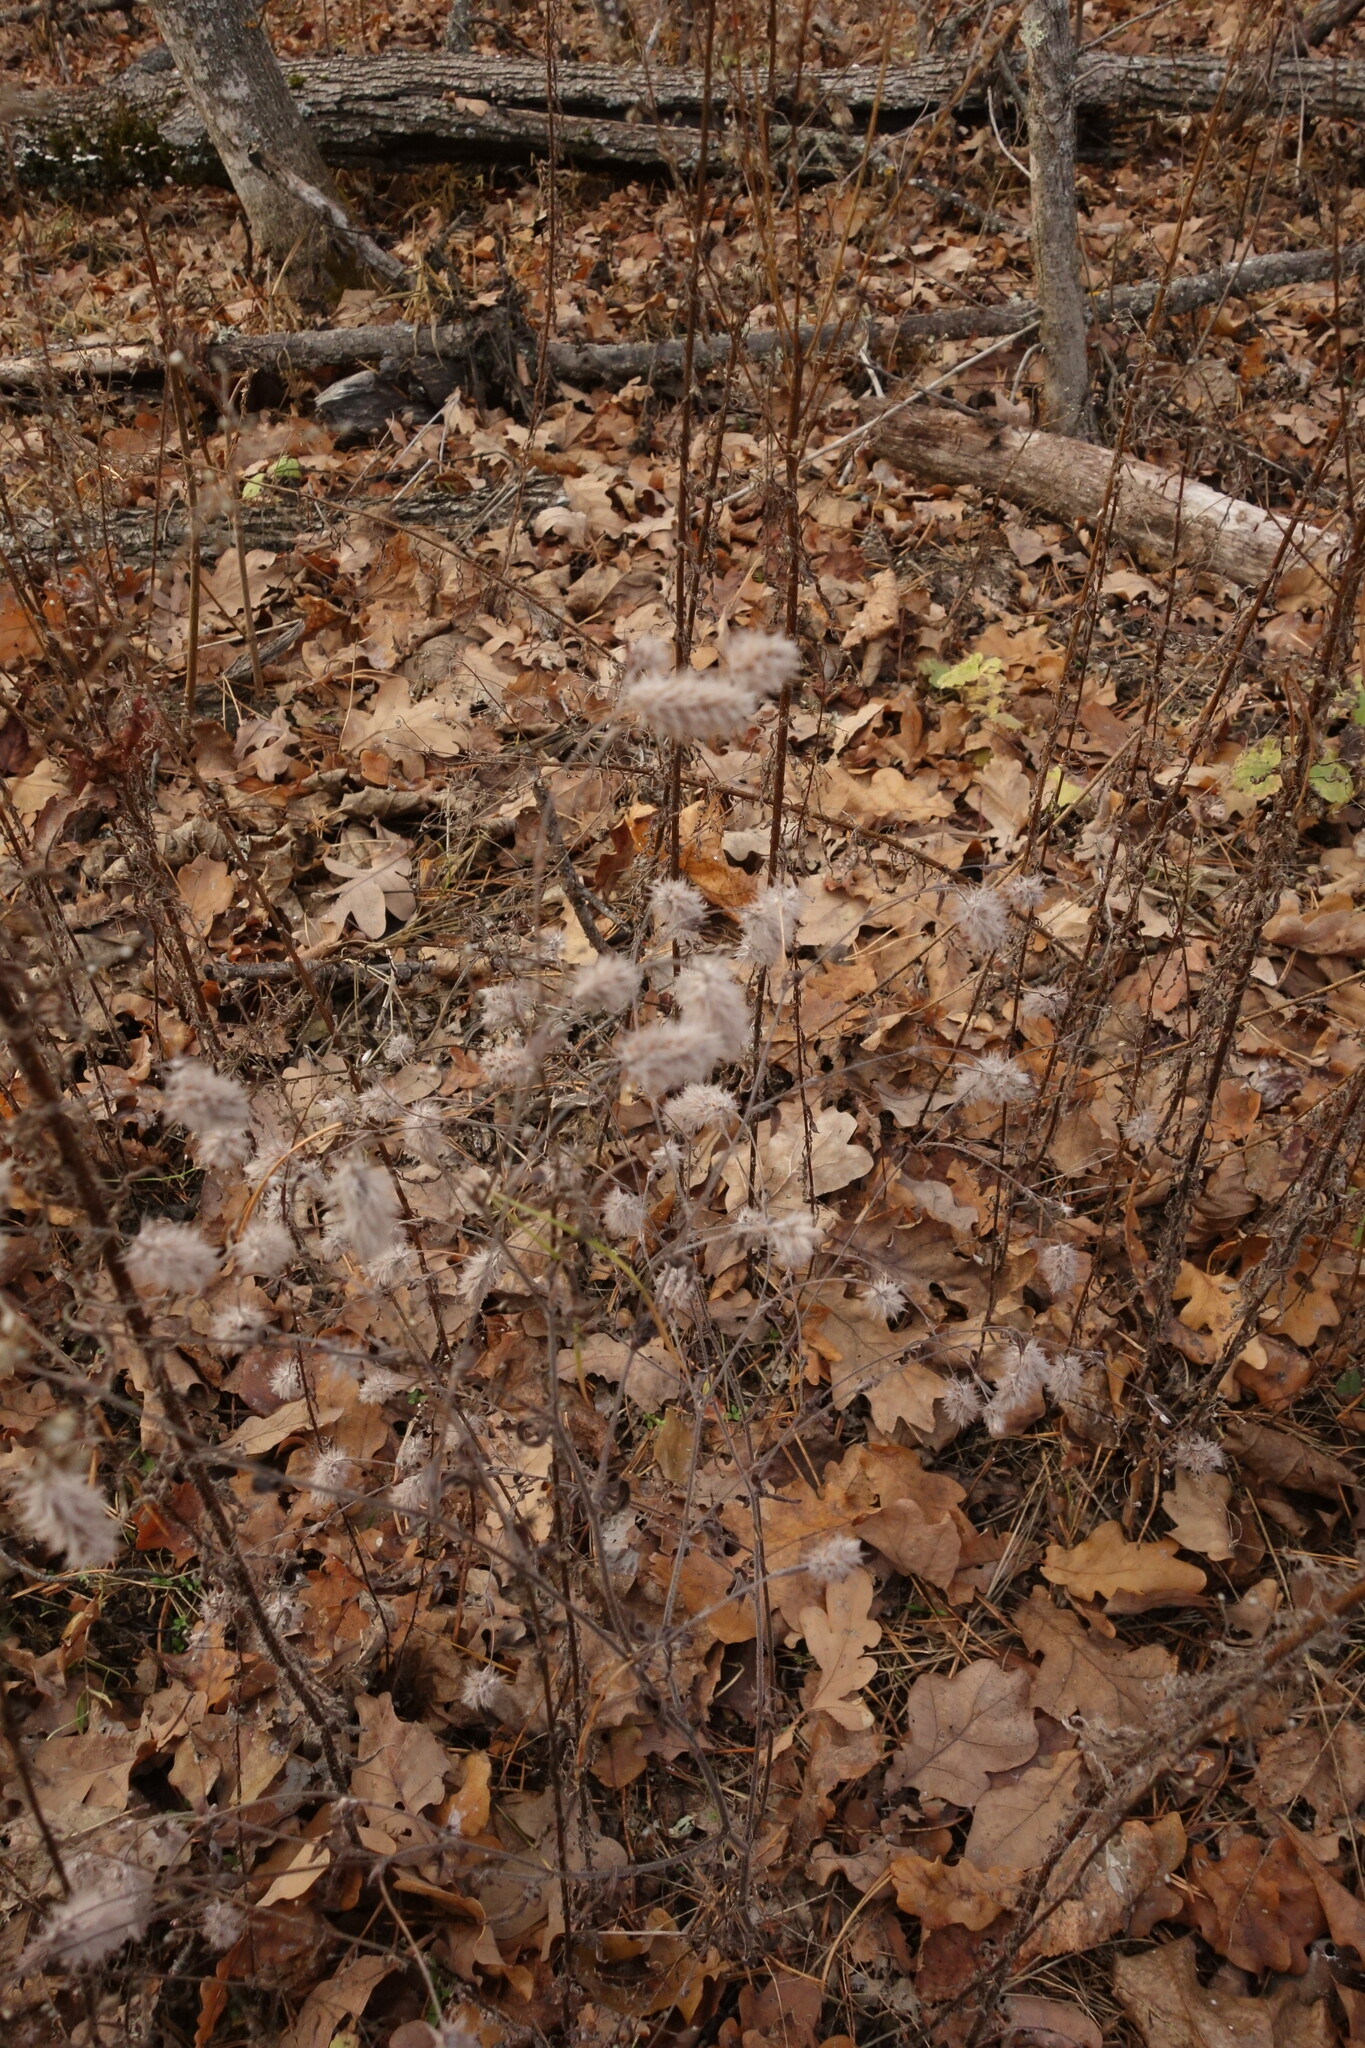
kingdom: Plantae
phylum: Tracheophyta
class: Magnoliopsida
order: Fabales
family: Fabaceae
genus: Trifolium
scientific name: Trifolium arvense
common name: Hare's-foot clover
